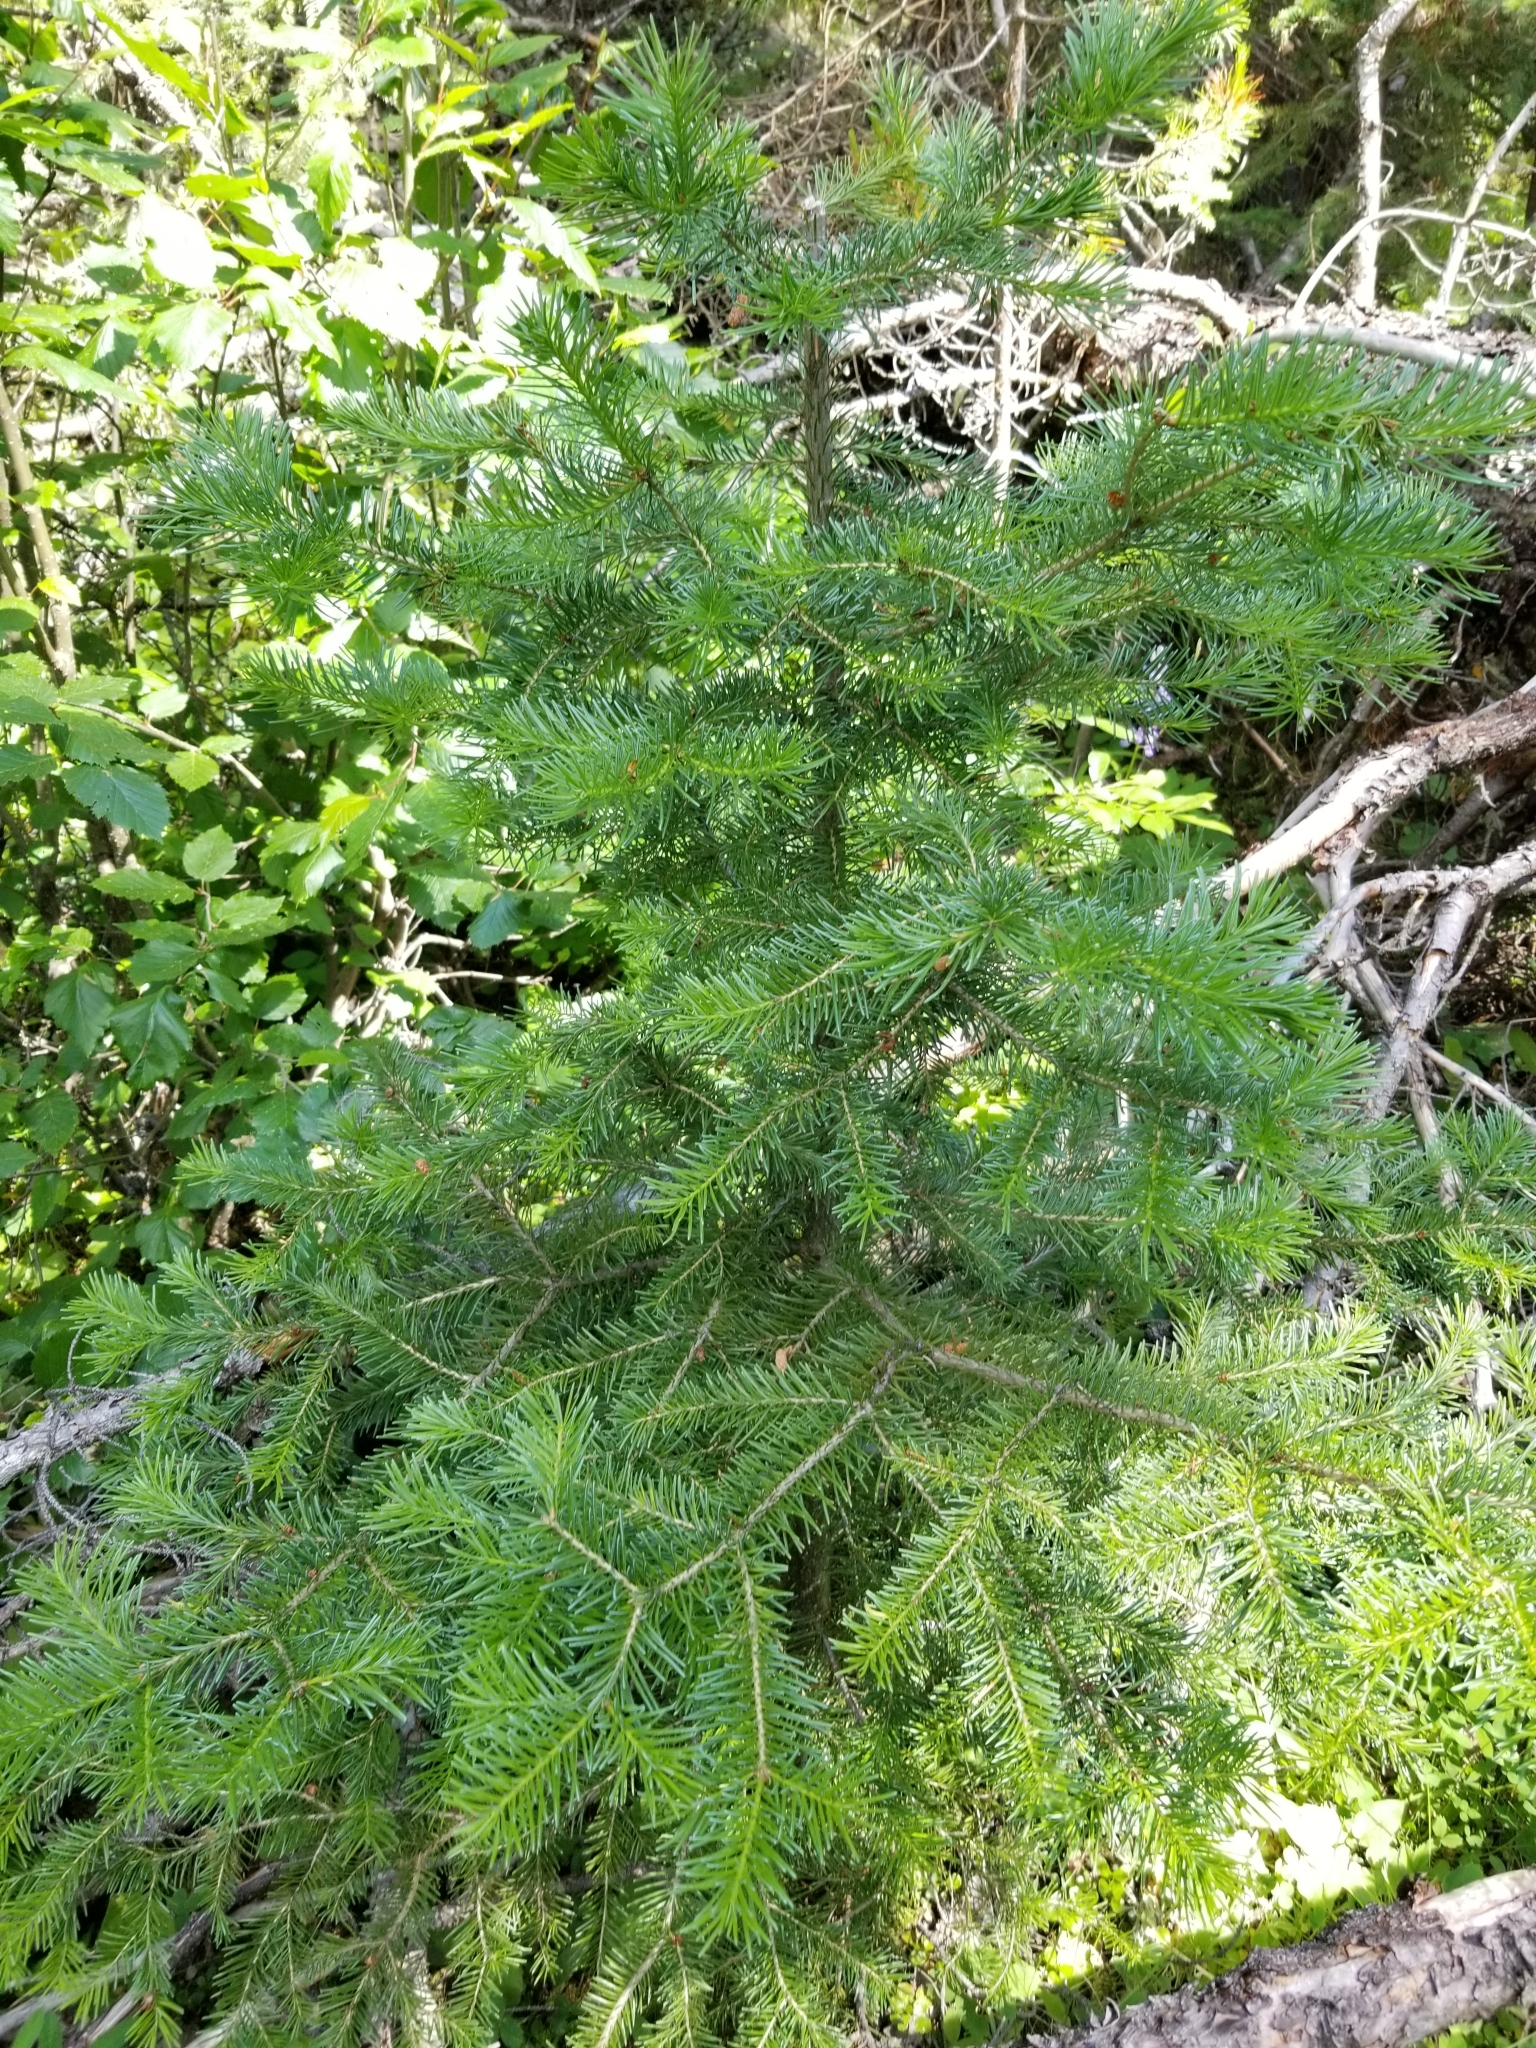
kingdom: Plantae
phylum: Tracheophyta
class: Pinopsida
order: Pinales
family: Pinaceae
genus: Pseudotsuga
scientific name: Pseudotsuga menziesii
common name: Douglas fir
